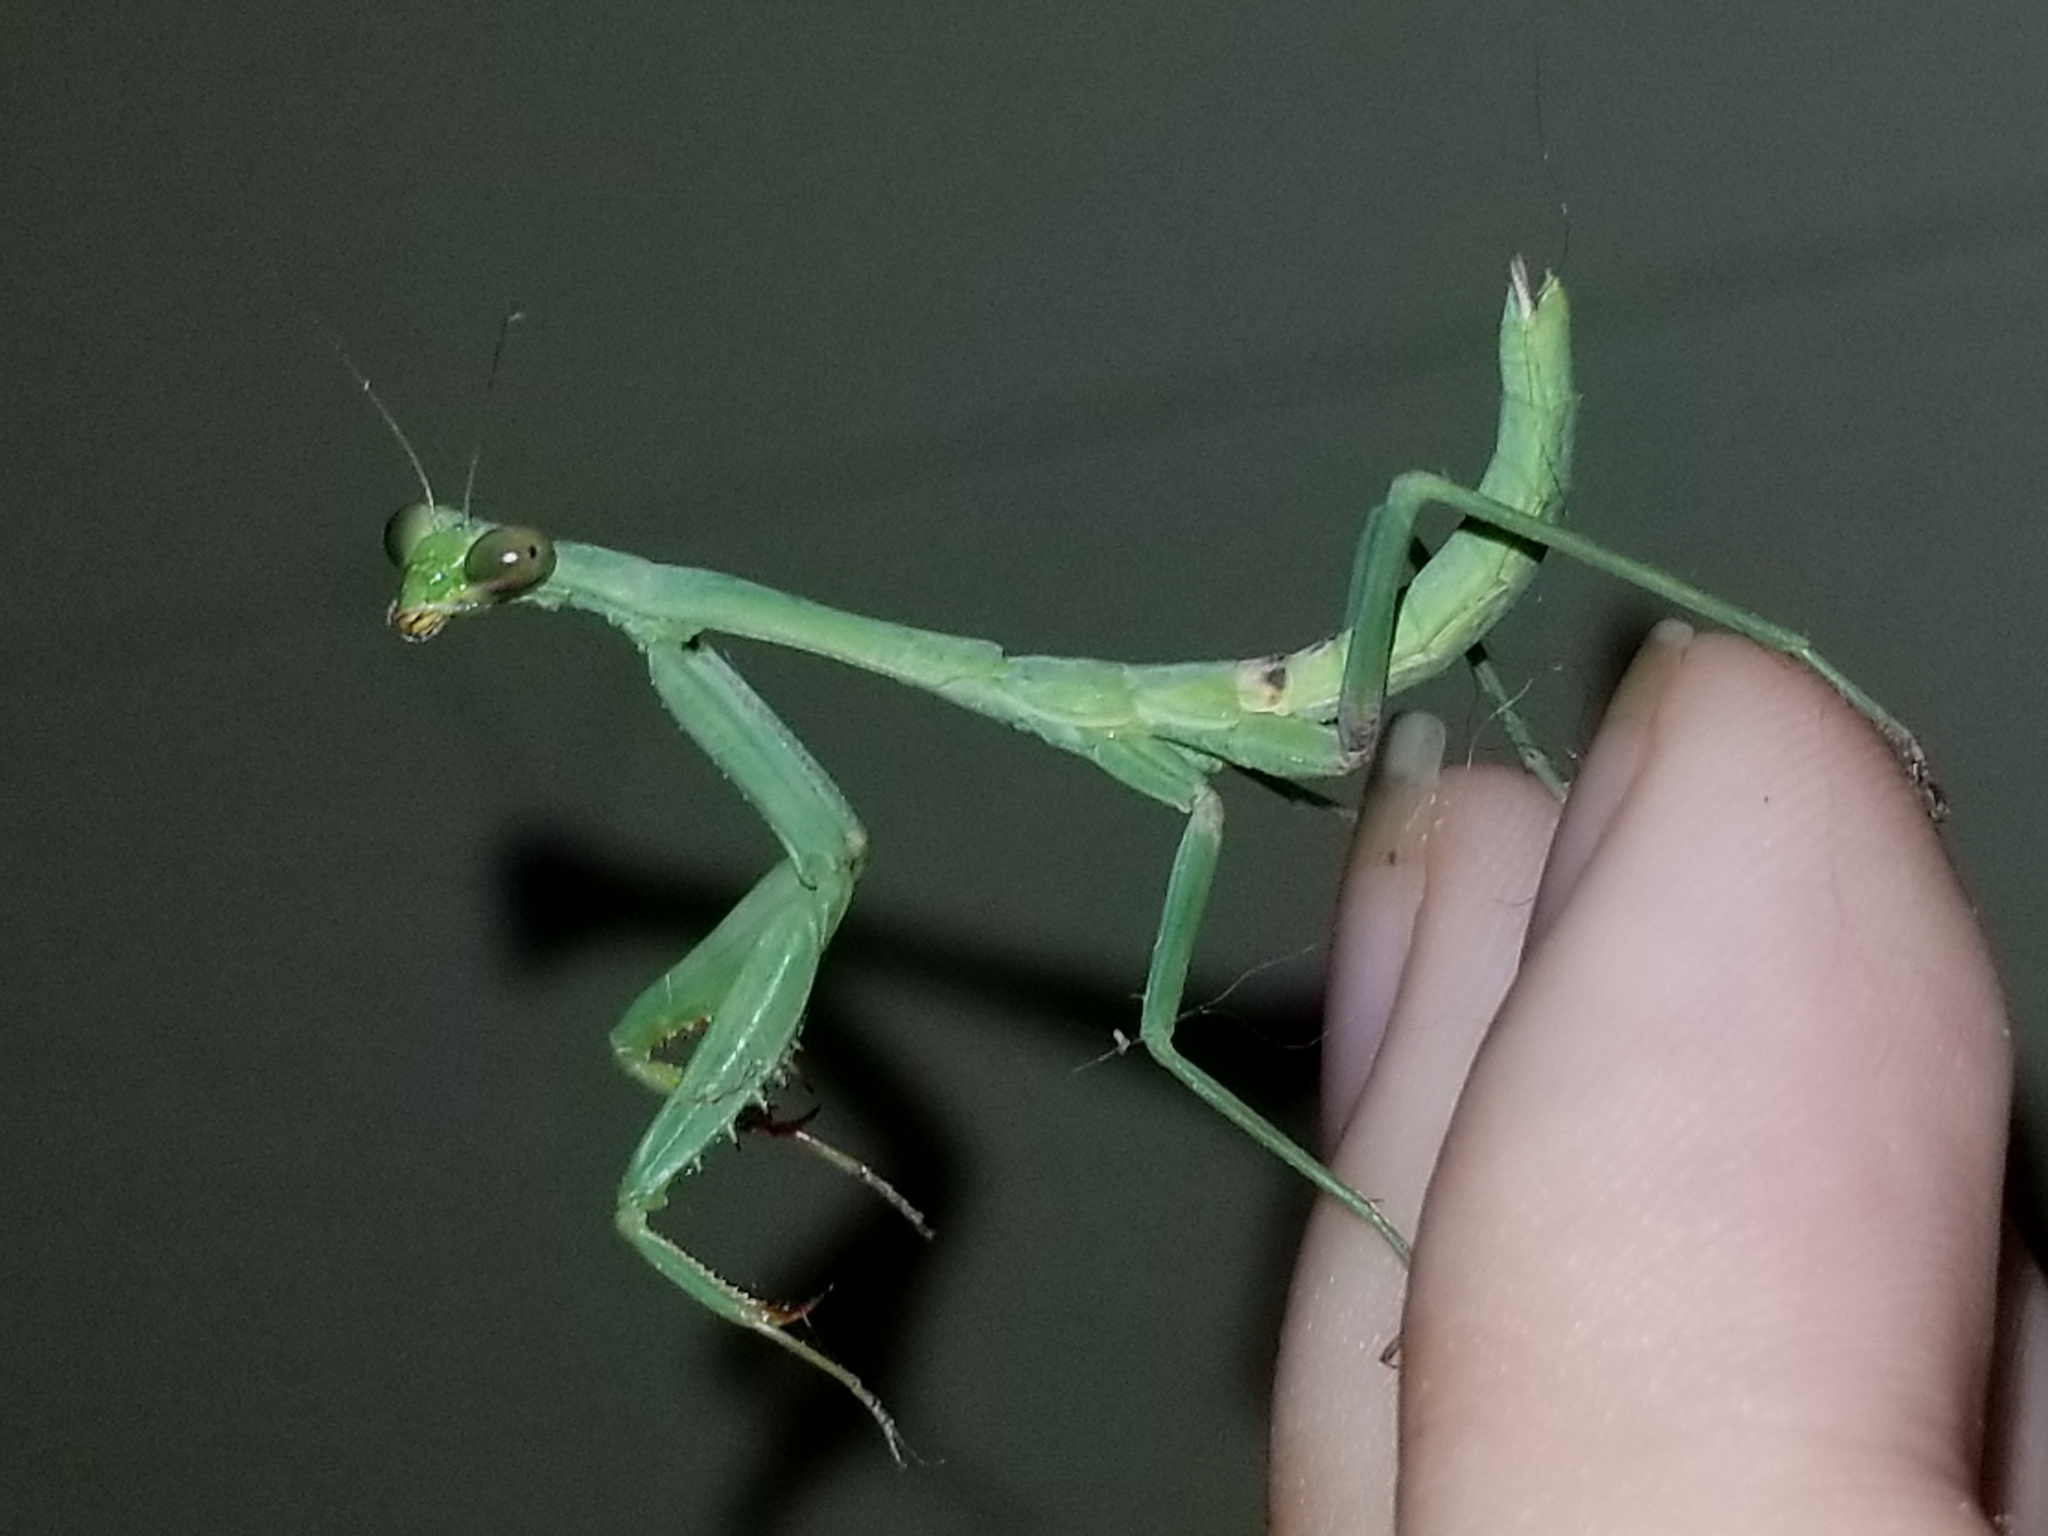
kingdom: Animalia
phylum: Arthropoda
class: Insecta
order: Mantodea
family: Mantidae
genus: Stagmomantis
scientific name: Stagmomantis carolina
